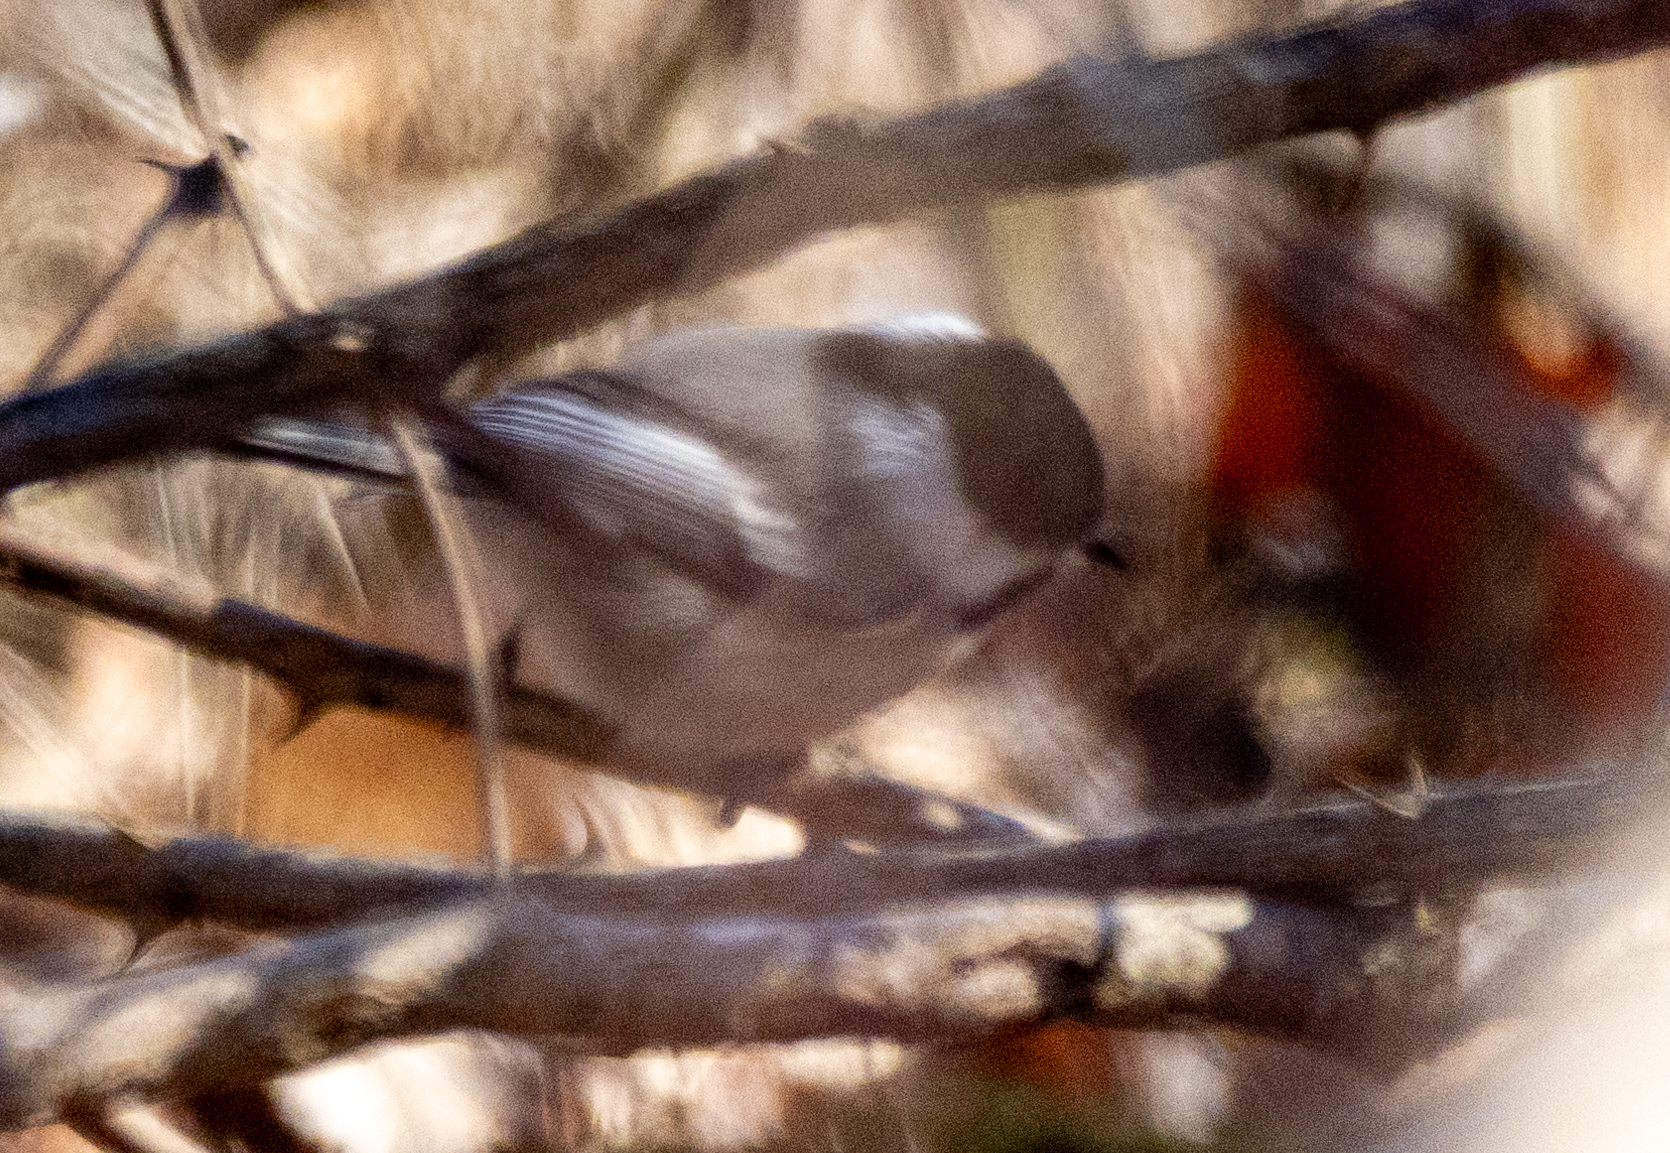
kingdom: Animalia
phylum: Chordata
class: Aves
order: Passeriformes
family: Paridae
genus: Poecile
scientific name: Poecile atricapillus
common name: Black-capped chickadee
